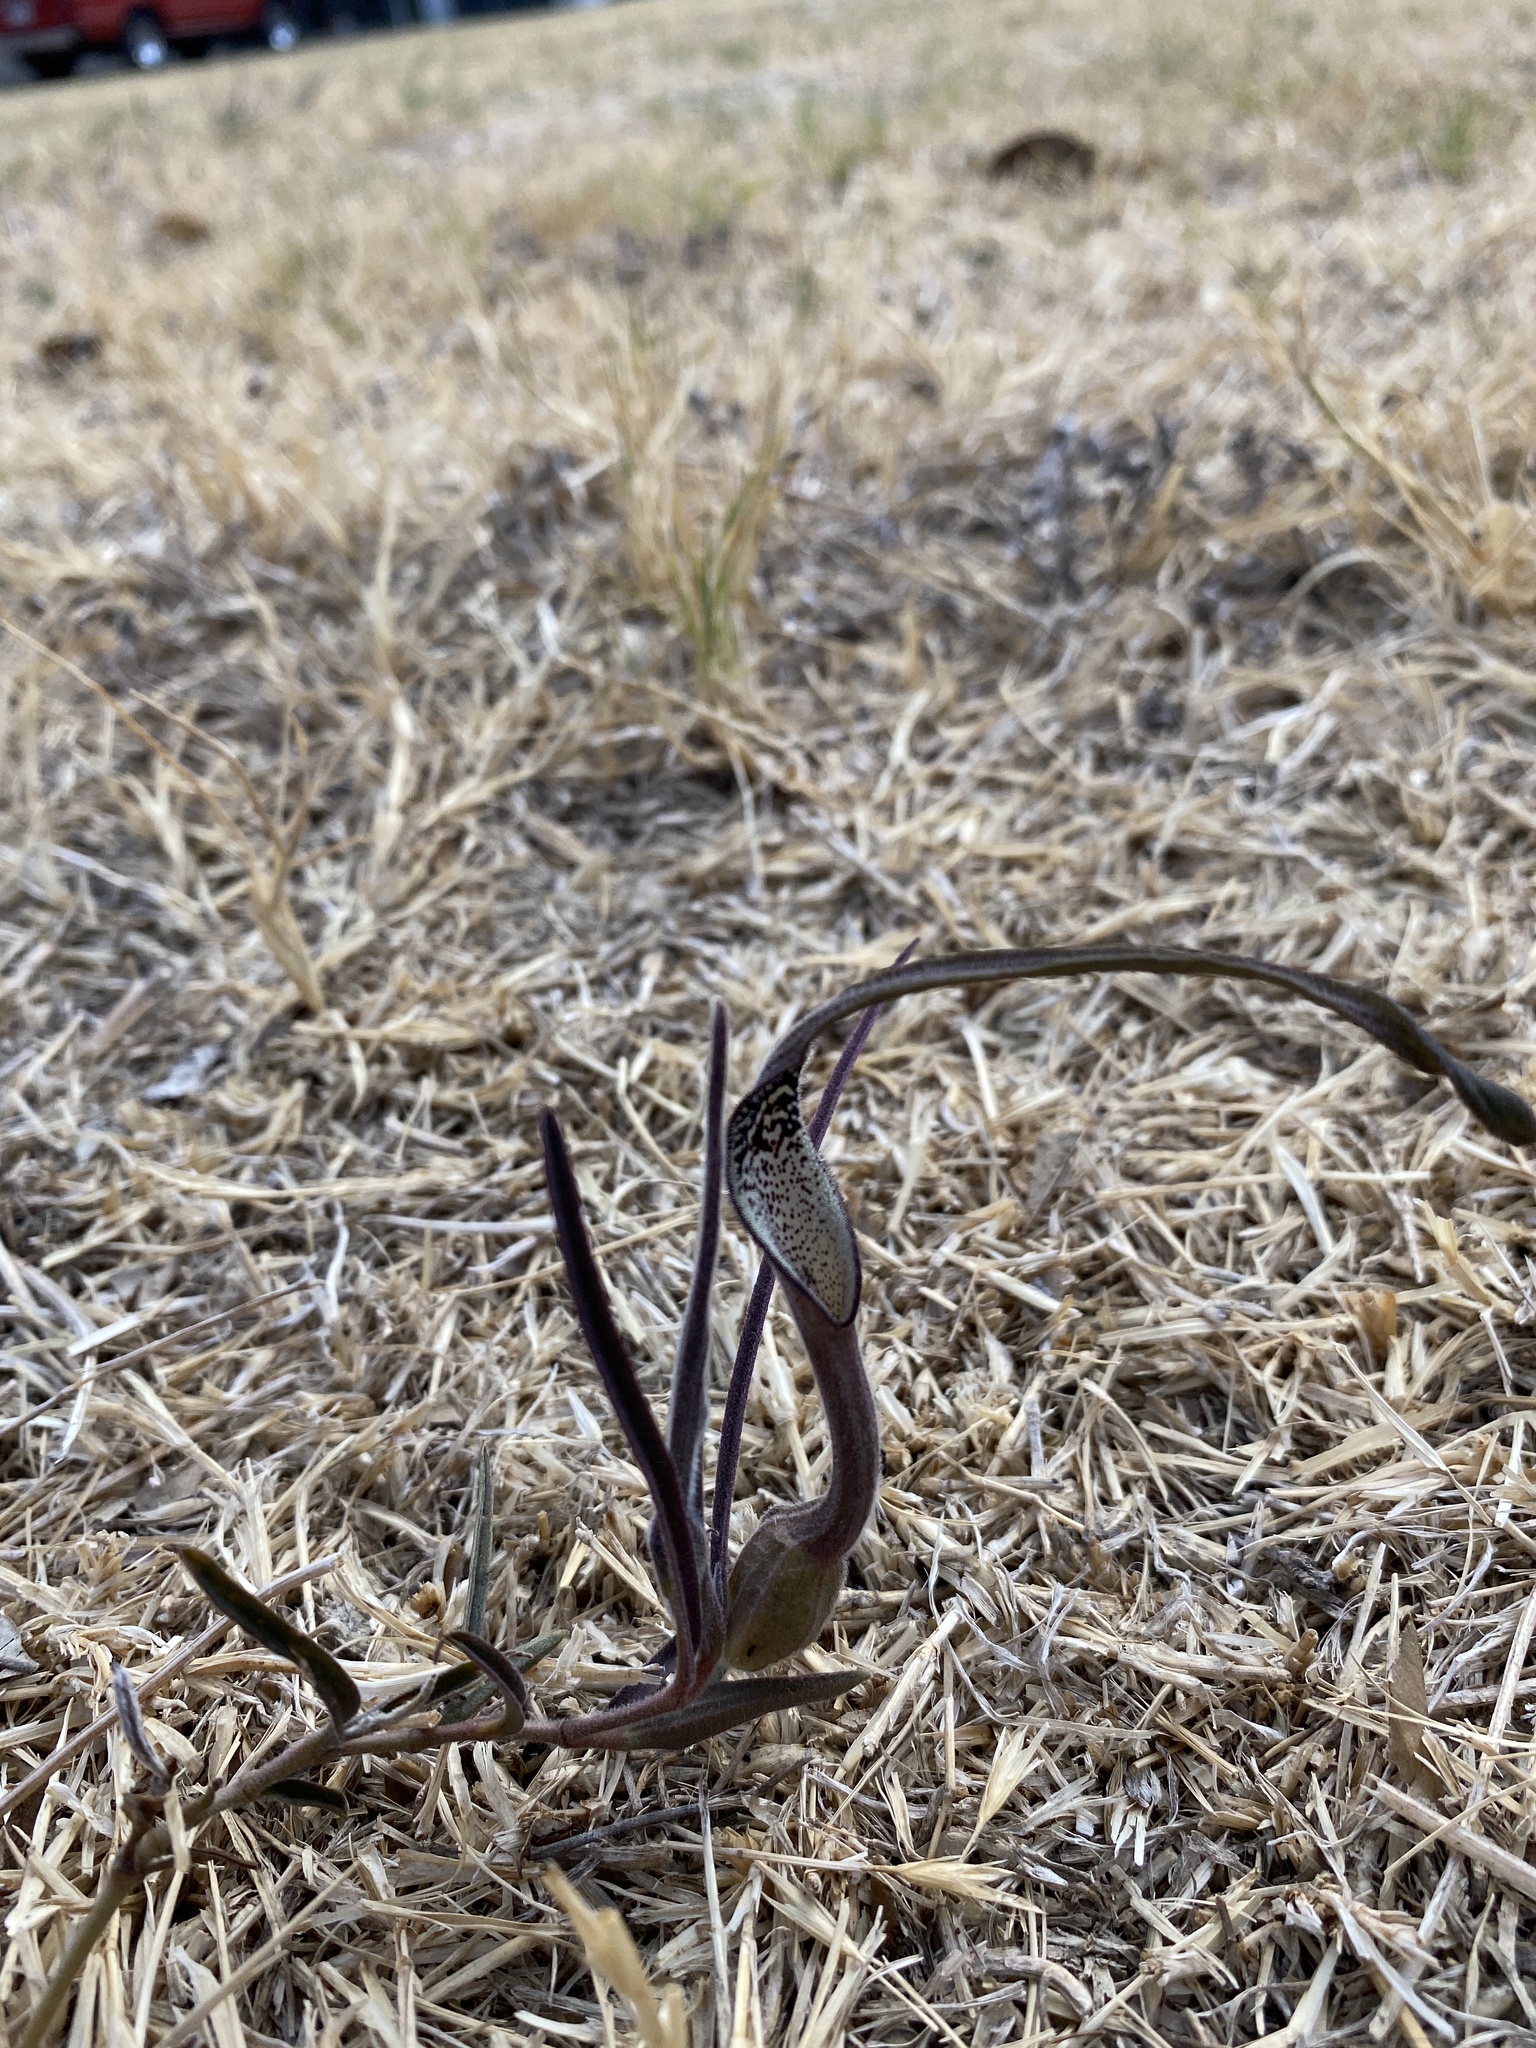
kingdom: Plantae
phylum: Tracheophyta
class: Magnoliopsida
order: Piperales
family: Aristolochiaceae
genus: Aristolochia
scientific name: Aristolochia erecta
